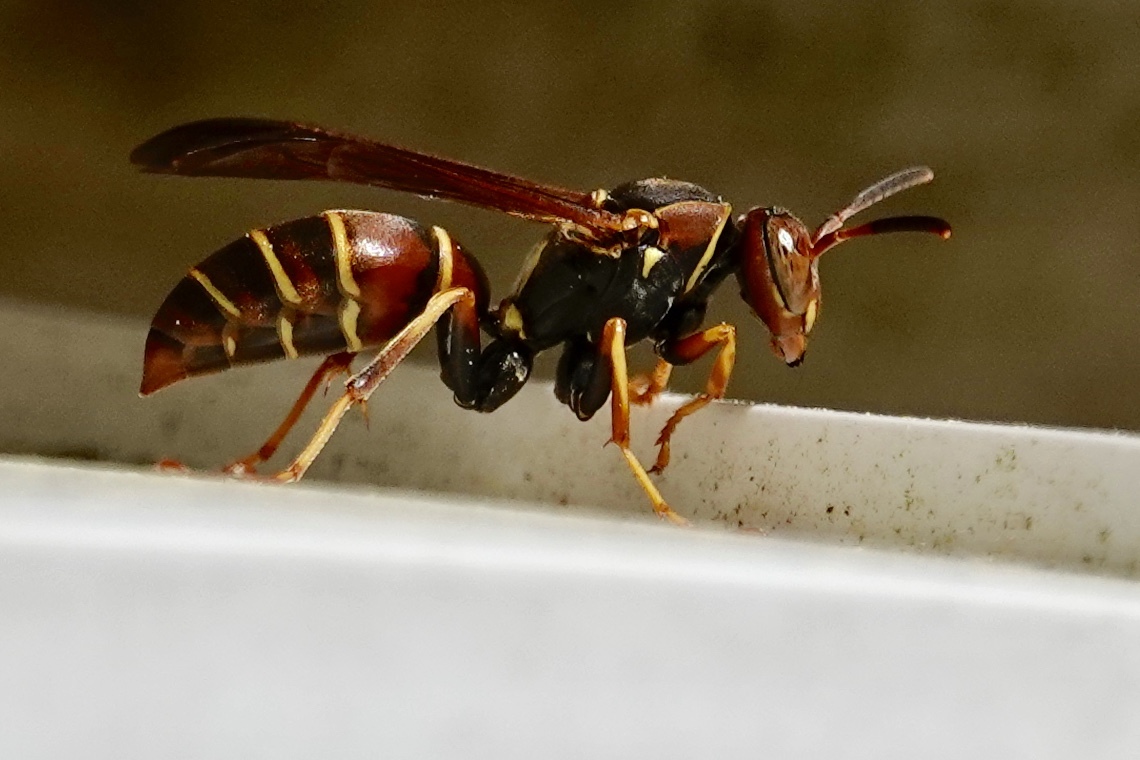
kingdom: Animalia
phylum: Arthropoda
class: Insecta
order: Hymenoptera
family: Eumenidae
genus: Polistes
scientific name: Polistes dorsalis
